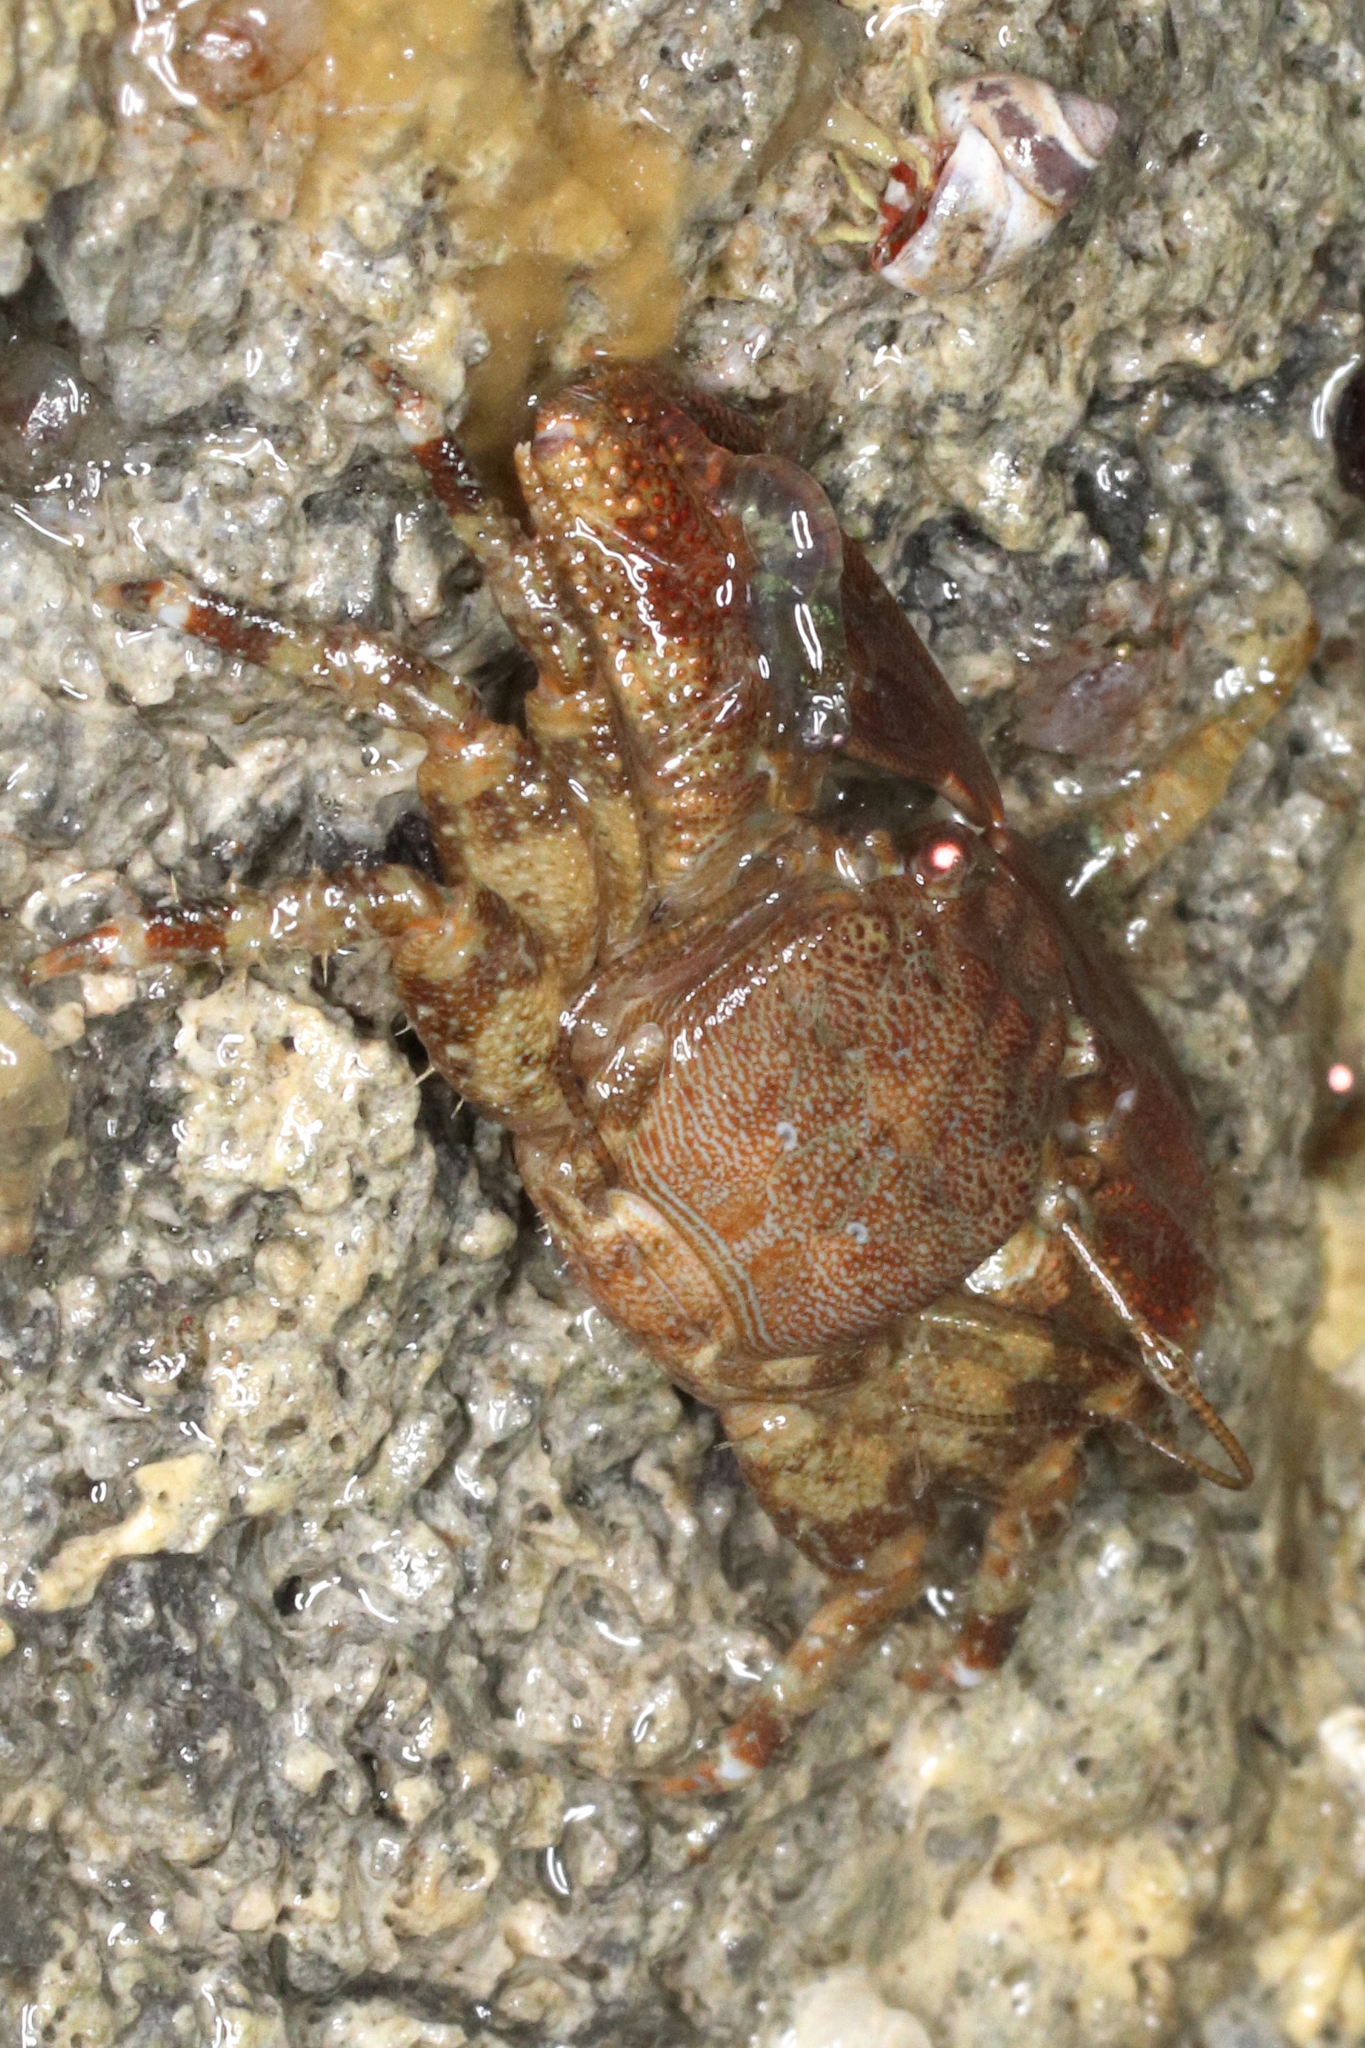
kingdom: Animalia
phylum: Arthropoda
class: Malacostraca
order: Decapoda
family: Porcellanidae
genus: Petrolisthes
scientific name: Petrolisthes eriomerus
